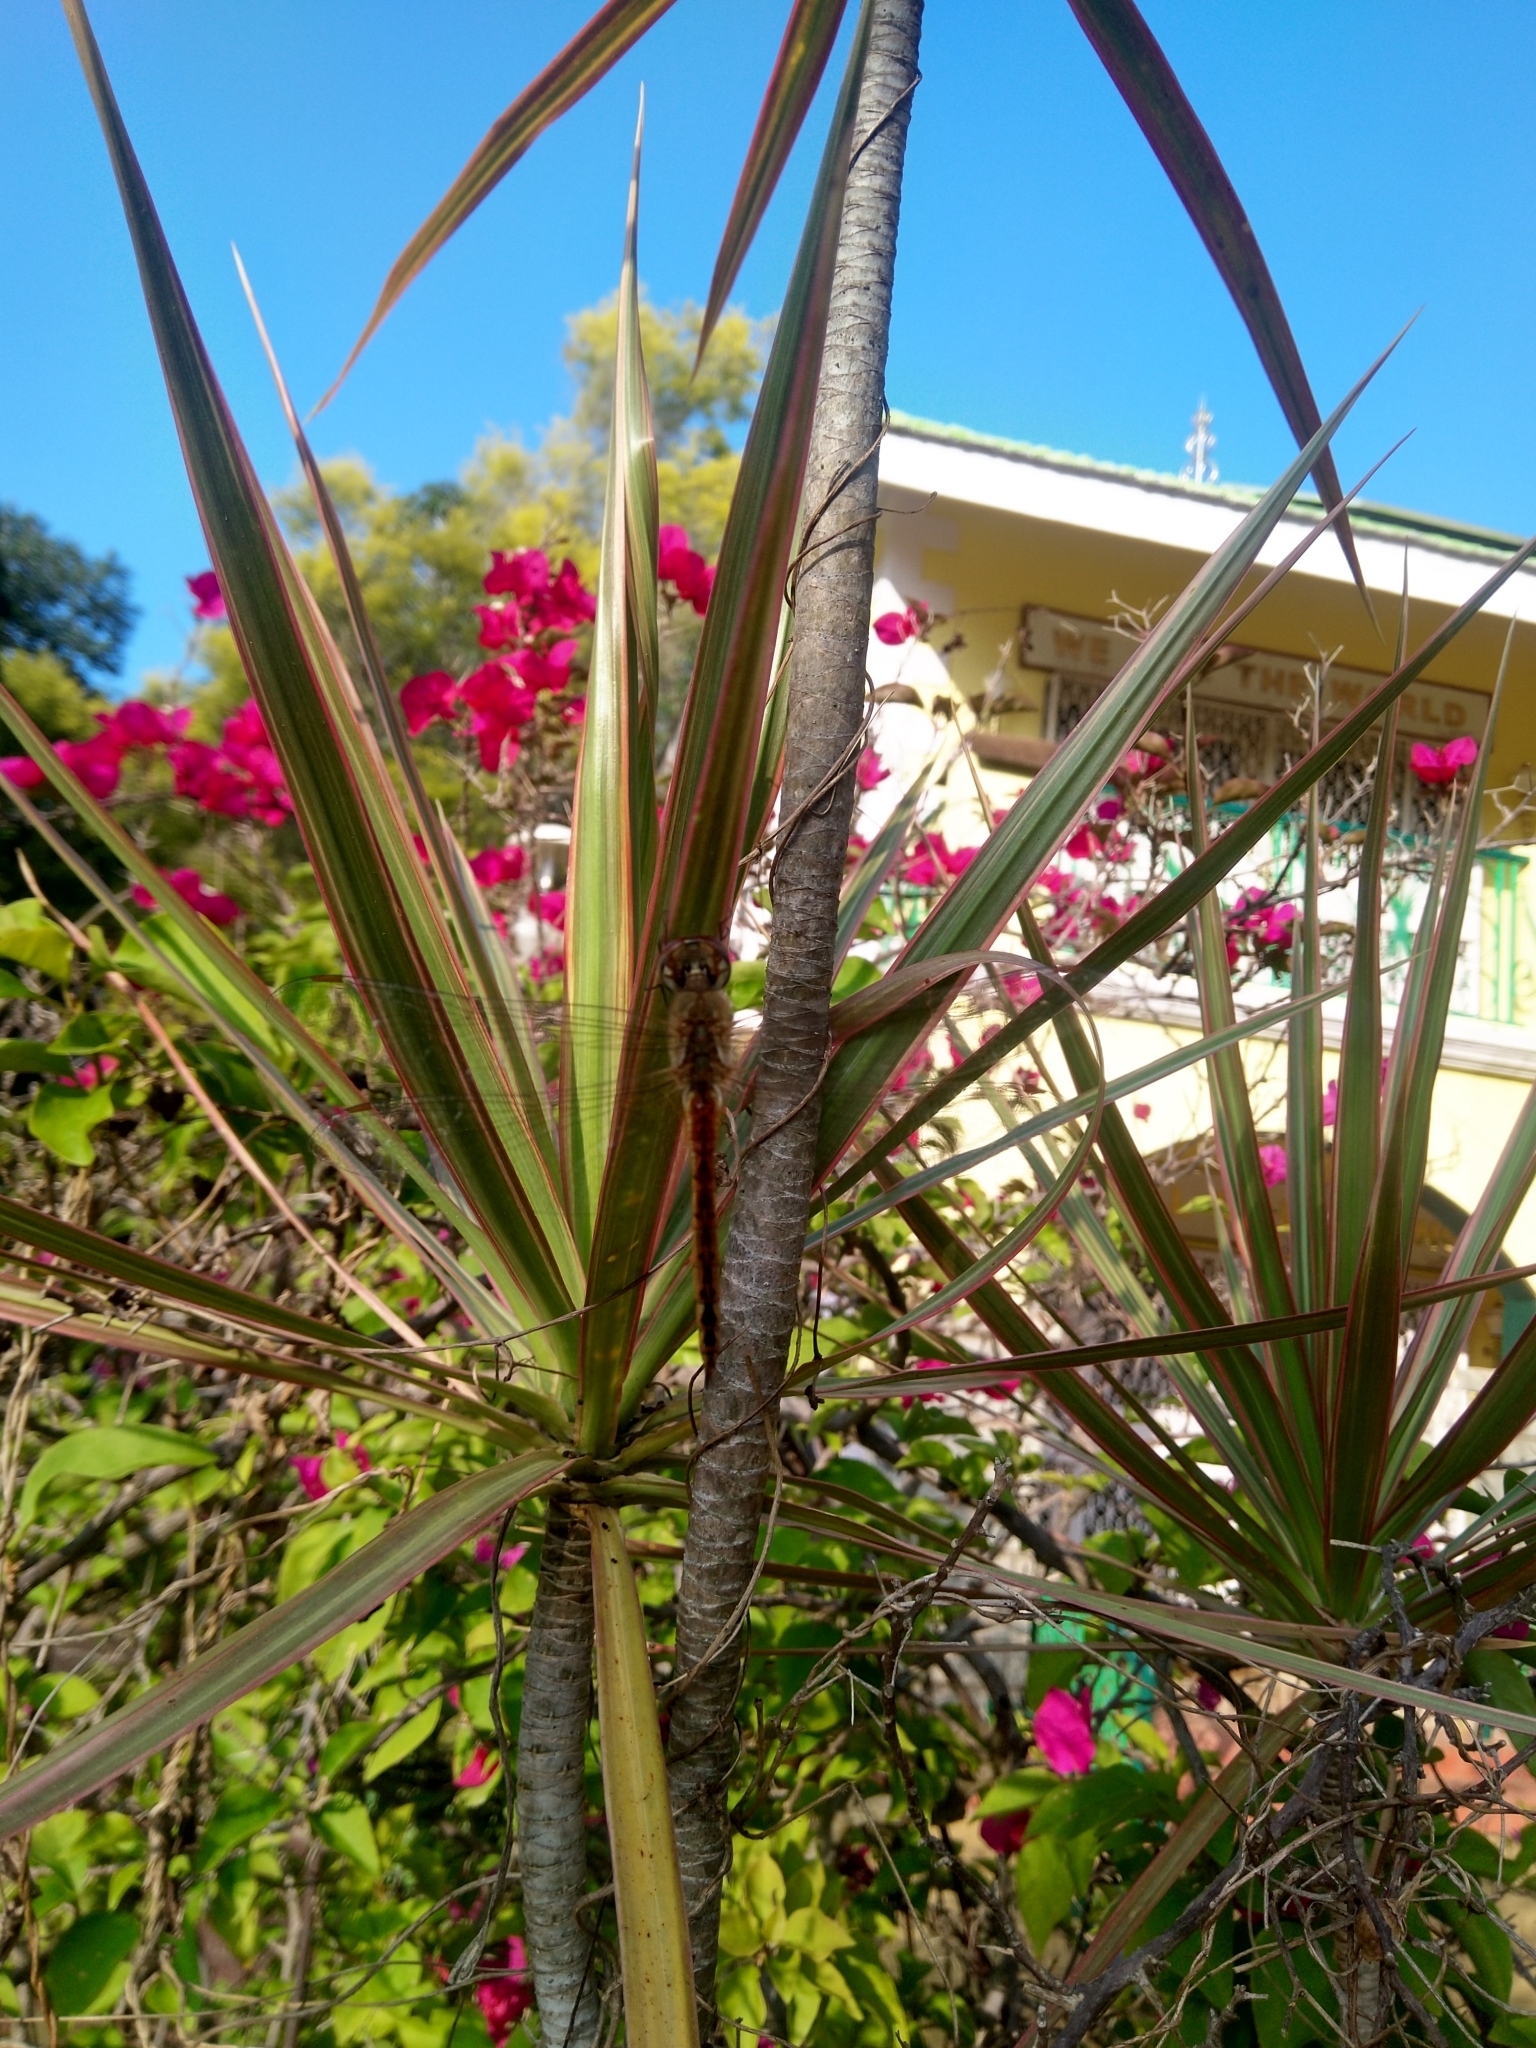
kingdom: Animalia
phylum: Arthropoda
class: Insecta
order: Odonata
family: Libellulidae
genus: Pantala
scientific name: Pantala flavescens
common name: Wandering glider
